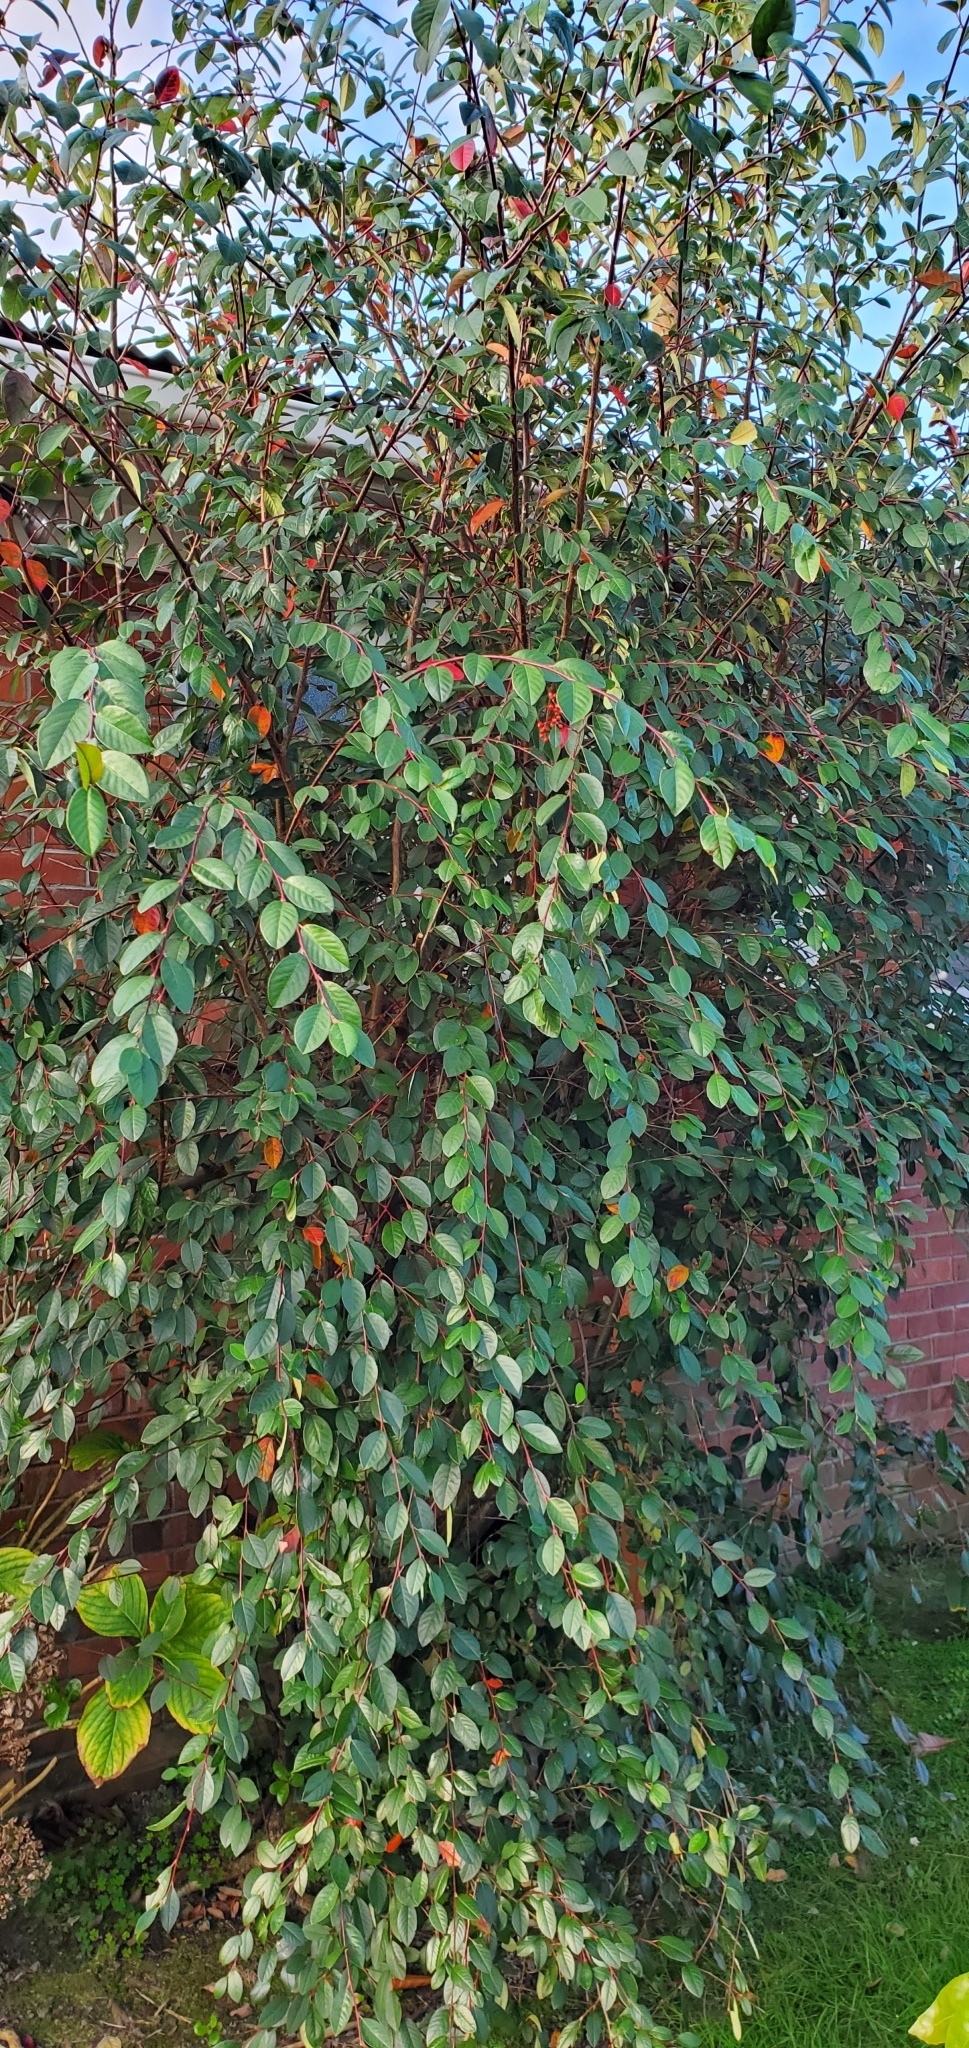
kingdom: Plantae
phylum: Tracheophyta
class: Magnoliopsida
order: Rosales
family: Rosaceae
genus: Cotoneaster
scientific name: Cotoneaster glaucophyllus
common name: Glaucous cotoneaster
